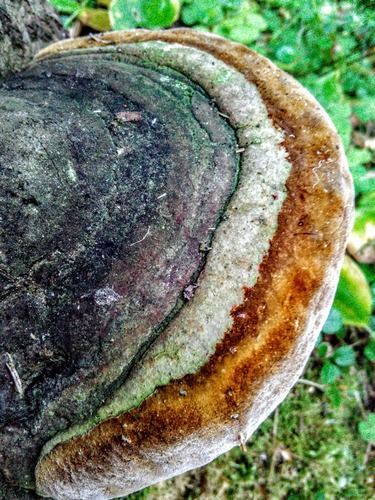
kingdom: Fungi
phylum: Basidiomycota
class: Agaricomycetes
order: Hymenochaetales
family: Hymenochaetaceae
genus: Phellinus
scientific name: Phellinus hartigii
